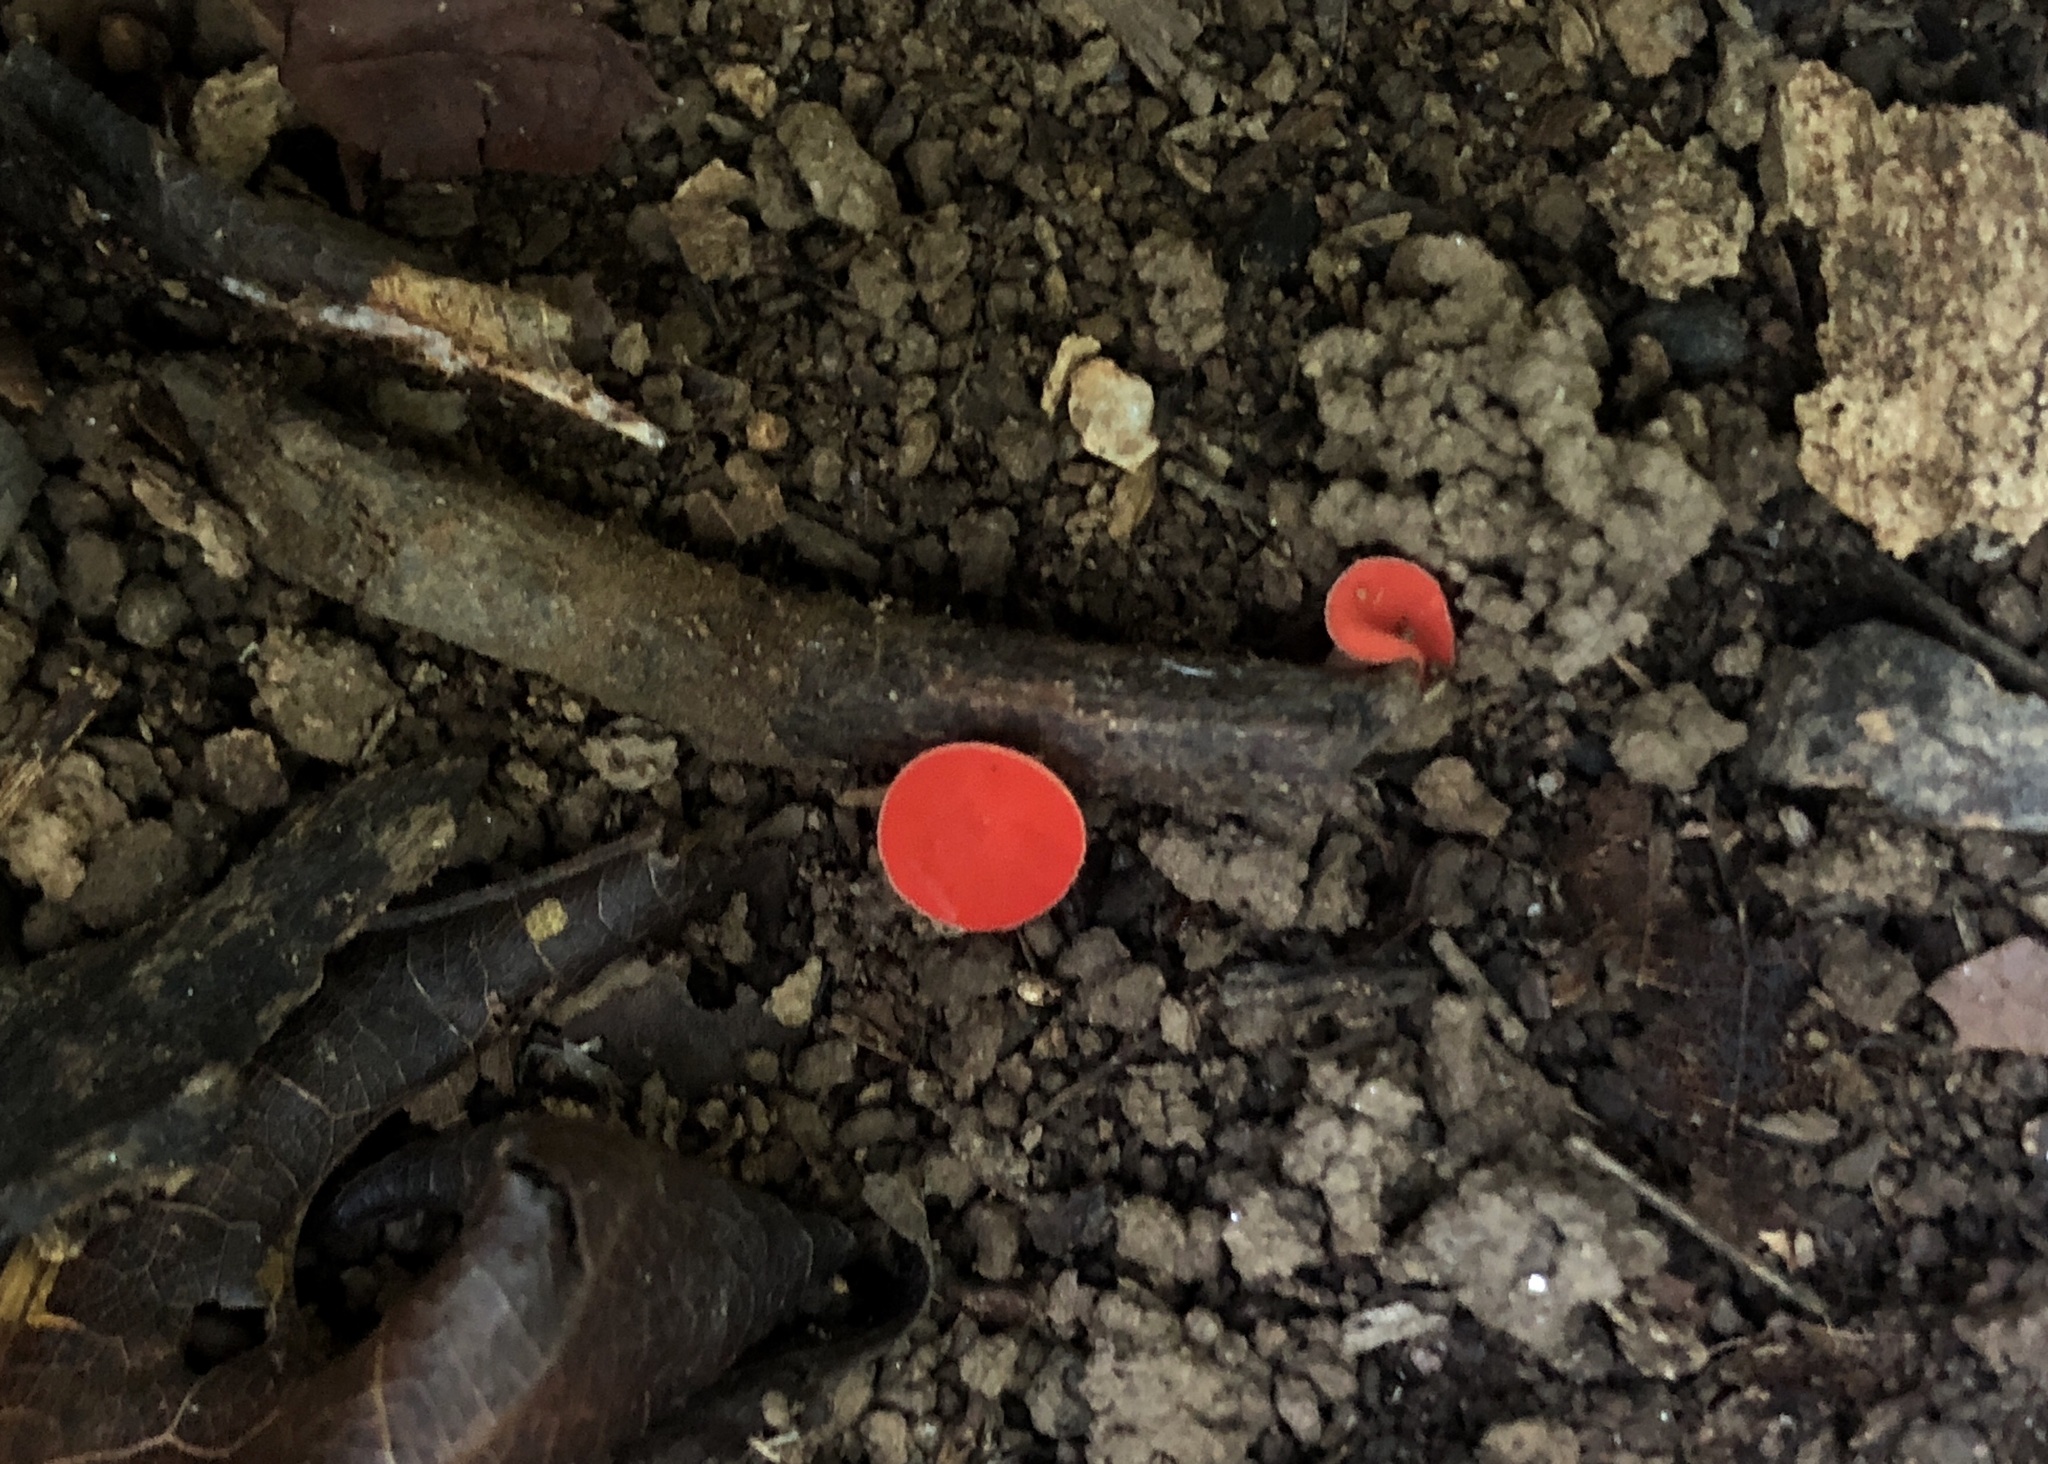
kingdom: Fungi
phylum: Ascomycota
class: Pezizomycetes
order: Pezizales
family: Sarcoscyphaceae
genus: Sarcoscypha
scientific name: Sarcoscypha occidentalis
